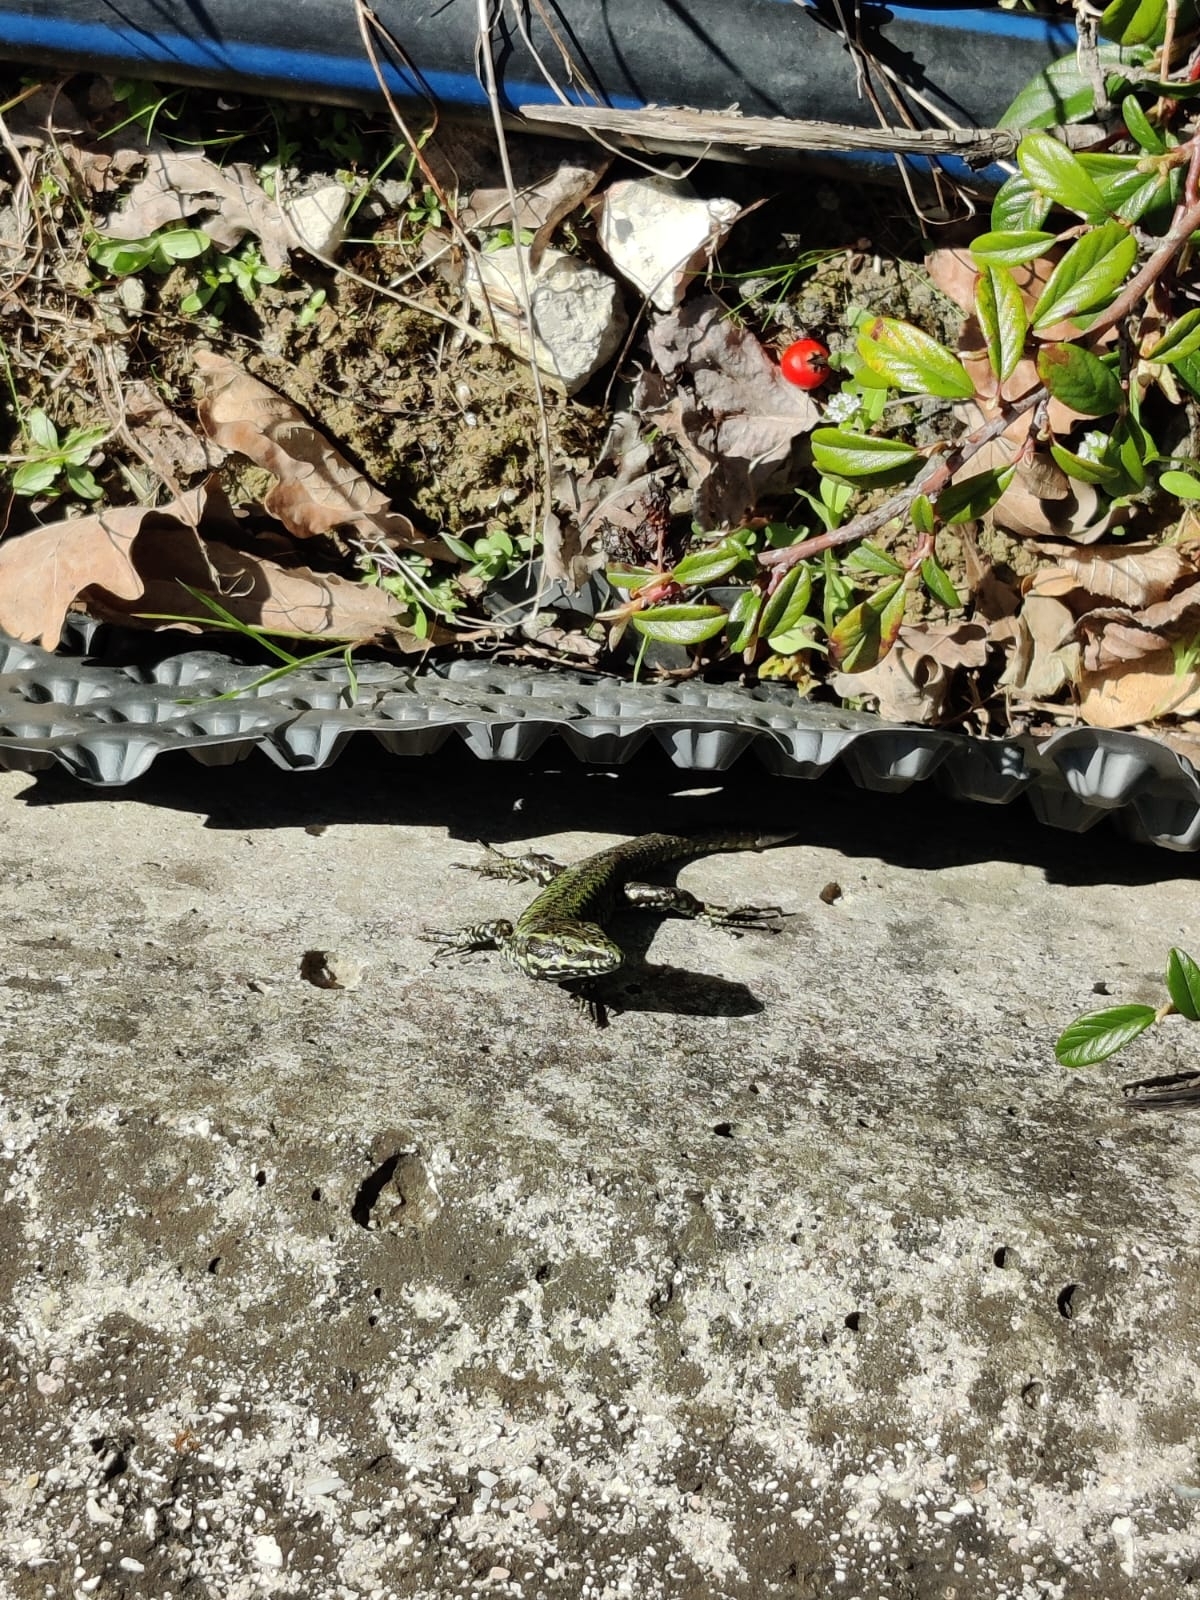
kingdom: Animalia
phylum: Chordata
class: Squamata
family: Lacertidae
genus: Podarcis
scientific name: Podarcis muralis
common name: Common wall lizard
